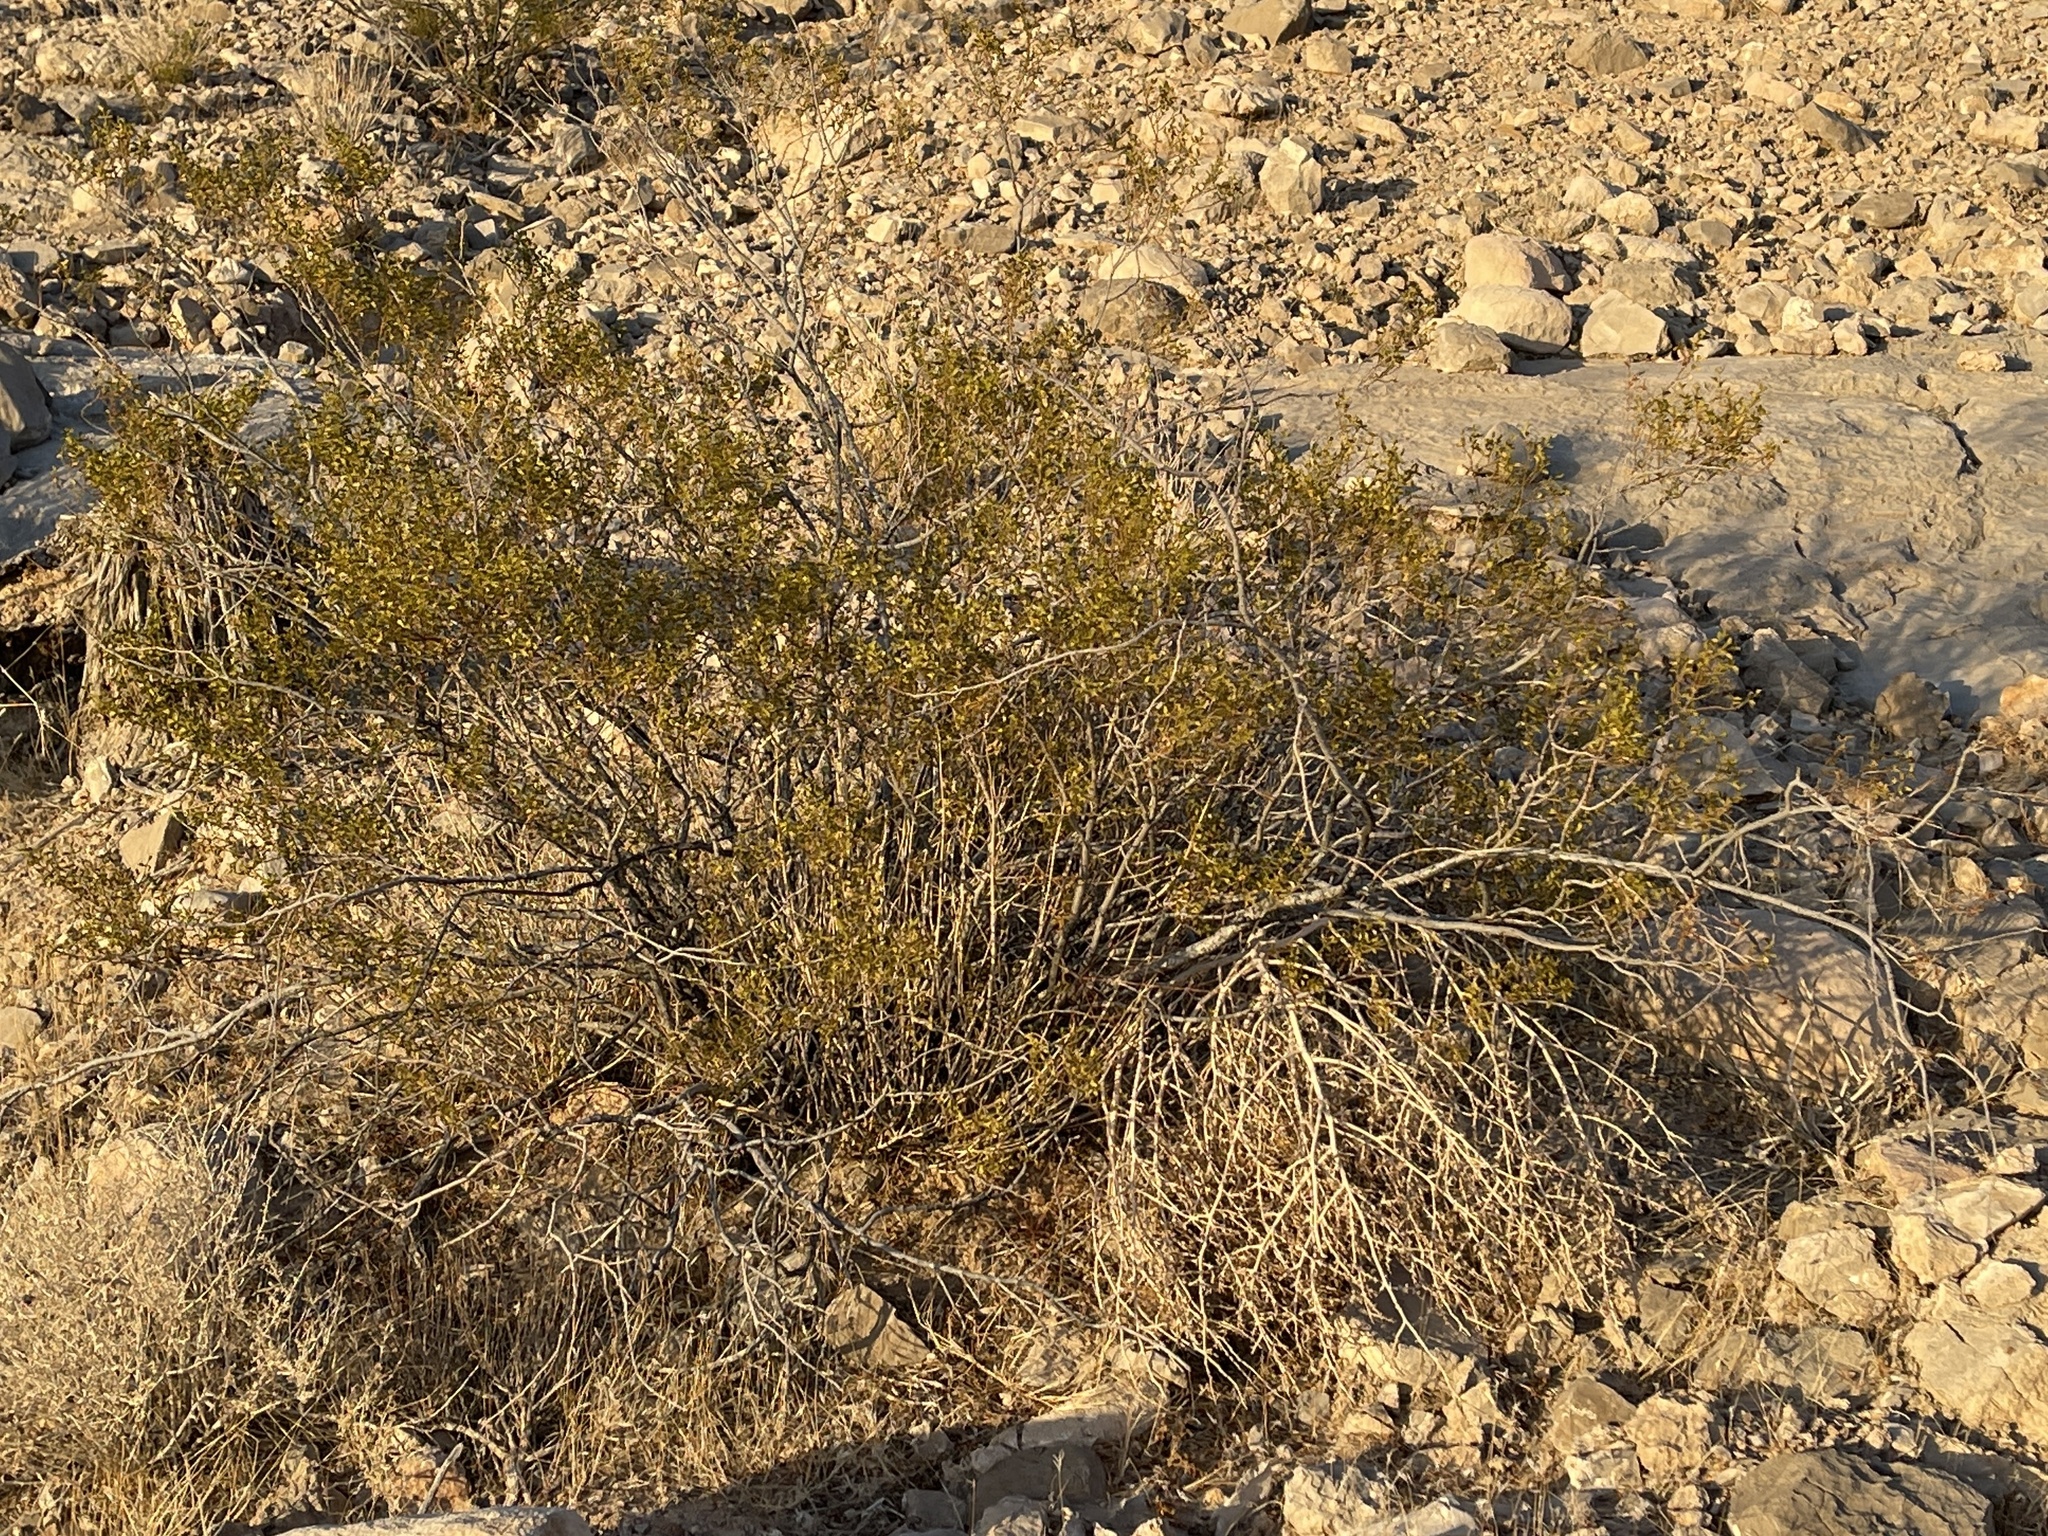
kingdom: Plantae
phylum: Tracheophyta
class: Magnoliopsida
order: Zygophyllales
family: Zygophyllaceae
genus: Larrea
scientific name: Larrea tridentata
